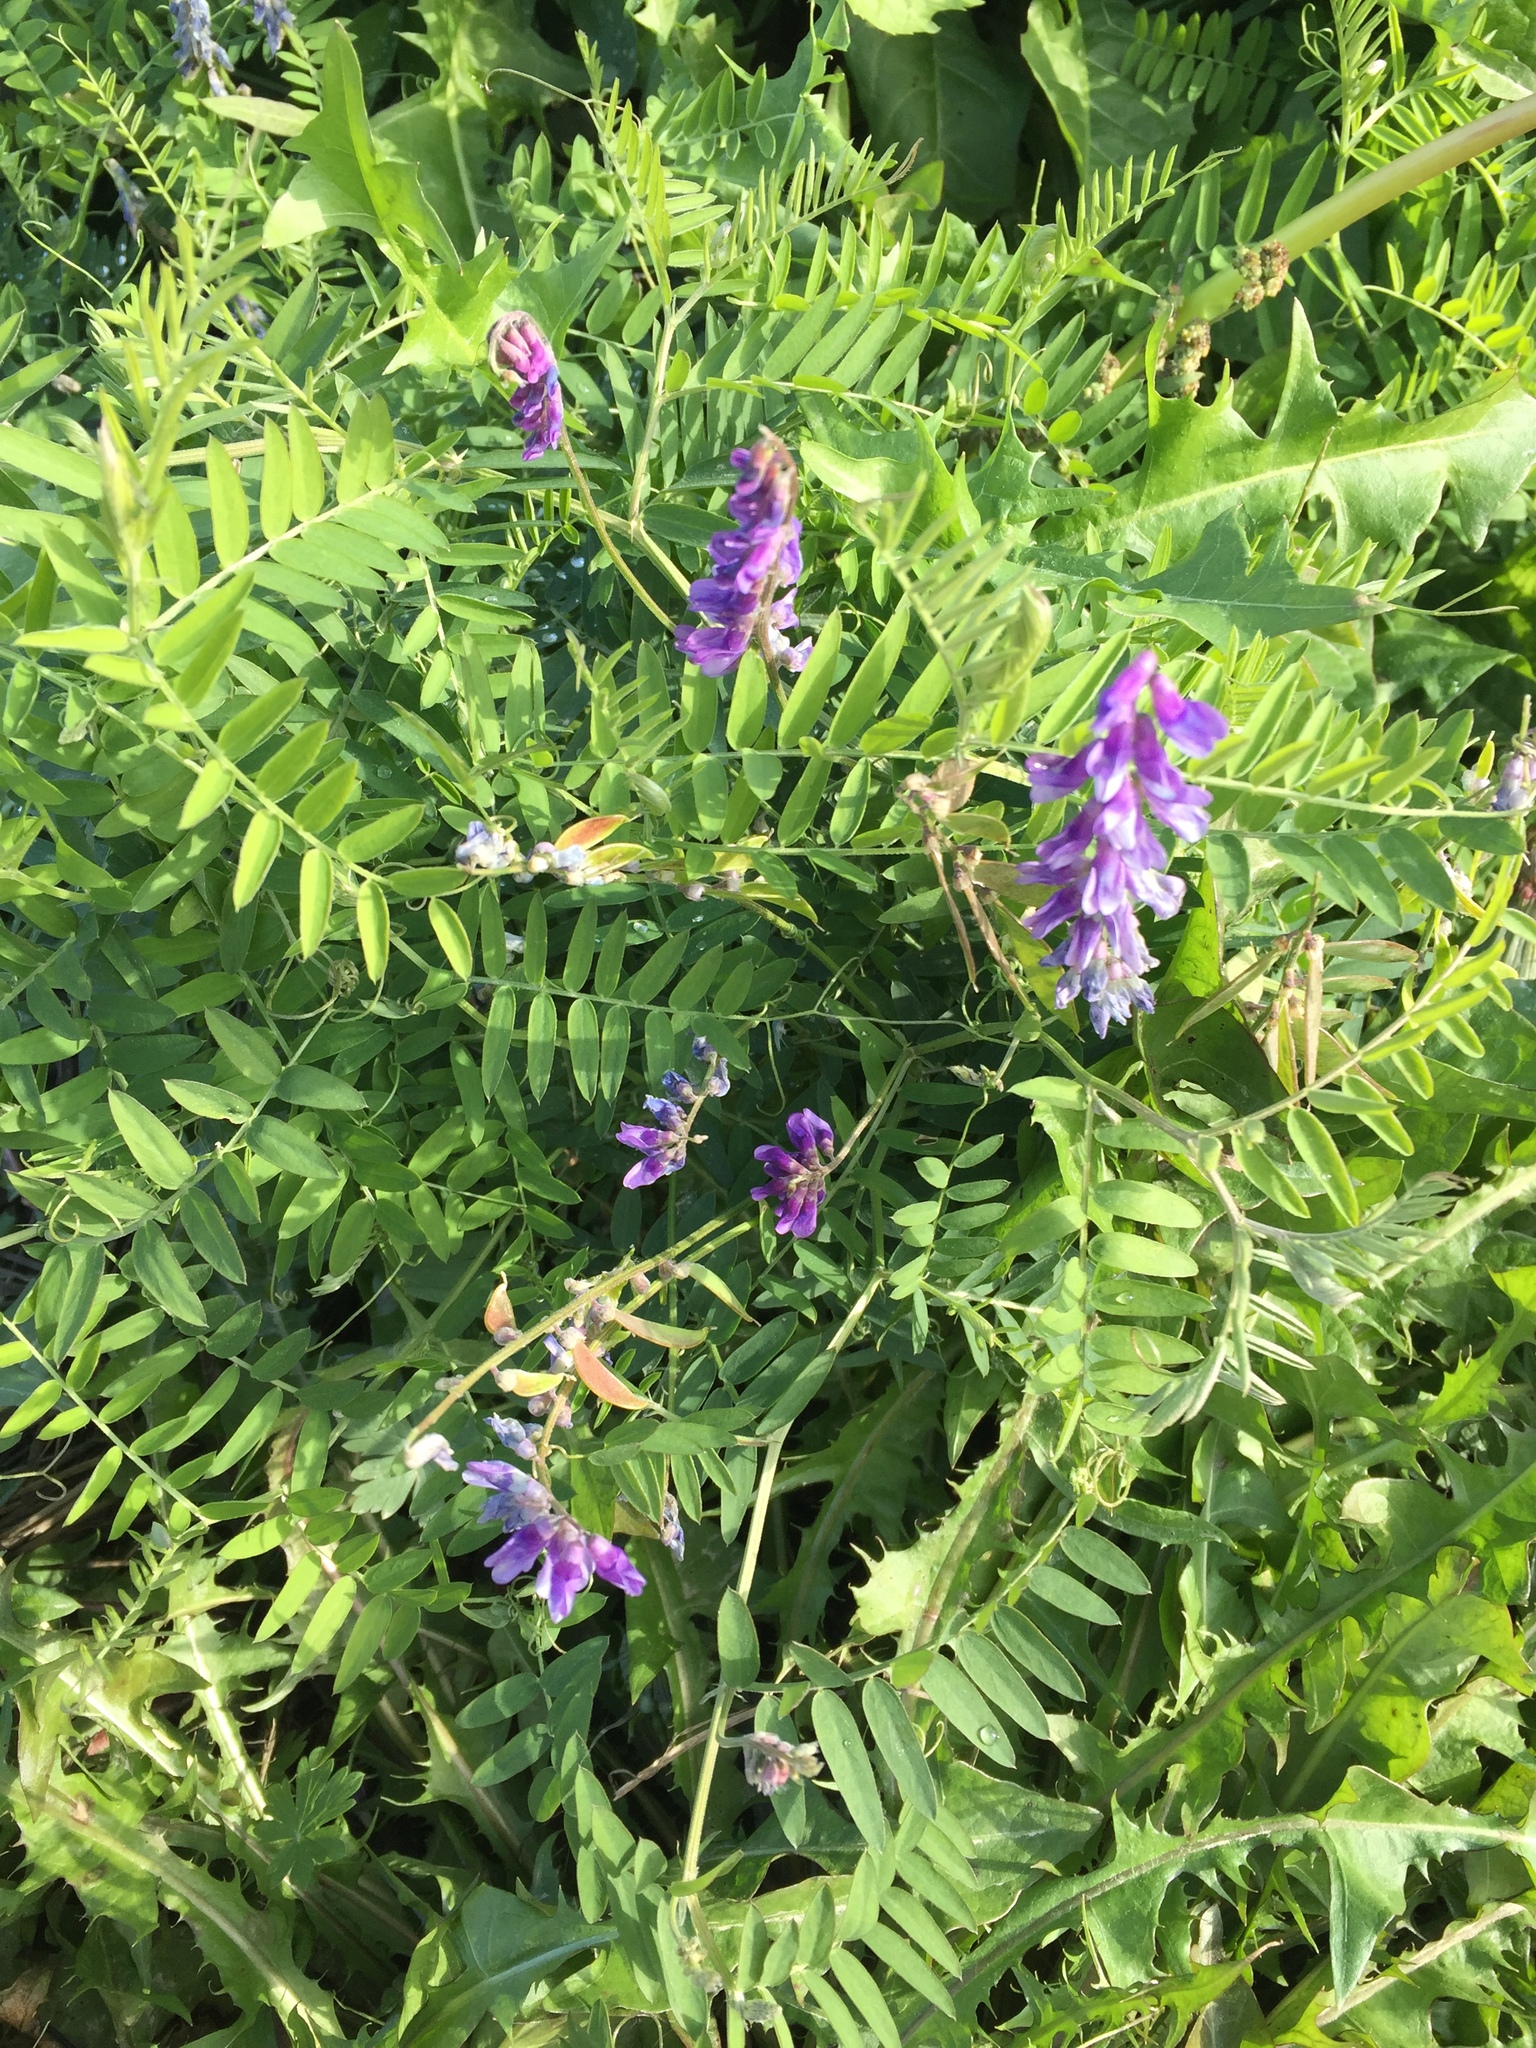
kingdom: Plantae
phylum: Tracheophyta
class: Magnoliopsida
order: Fabales
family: Fabaceae
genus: Vicia
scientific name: Vicia cracca
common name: Bird vetch
